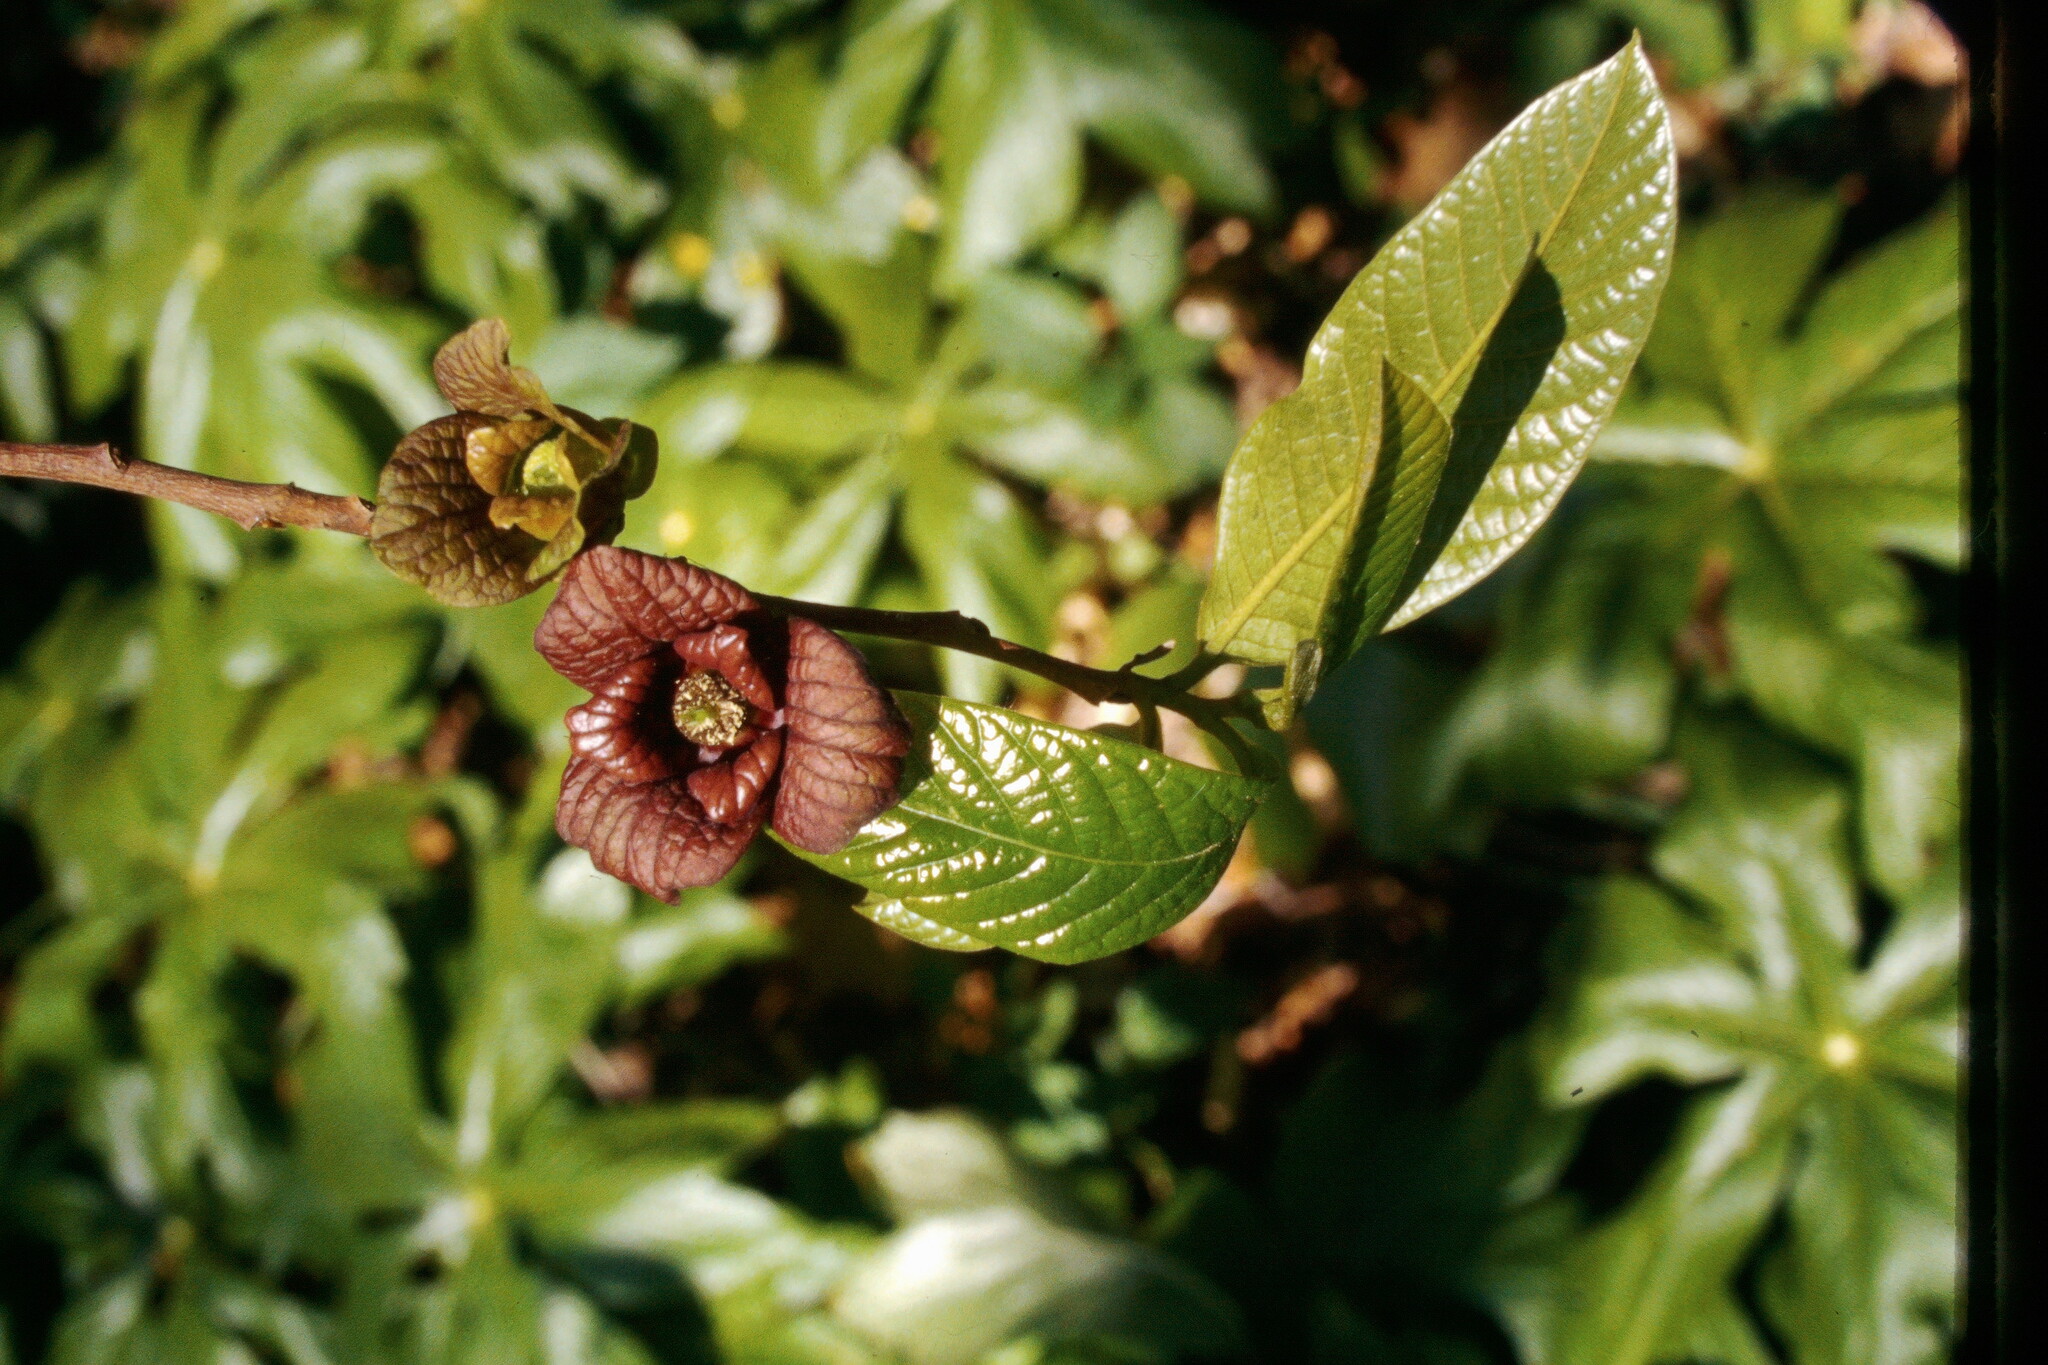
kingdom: Plantae
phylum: Tracheophyta
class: Magnoliopsida
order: Magnoliales
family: Annonaceae
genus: Asimina
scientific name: Asimina triloba
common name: Dog-banana
